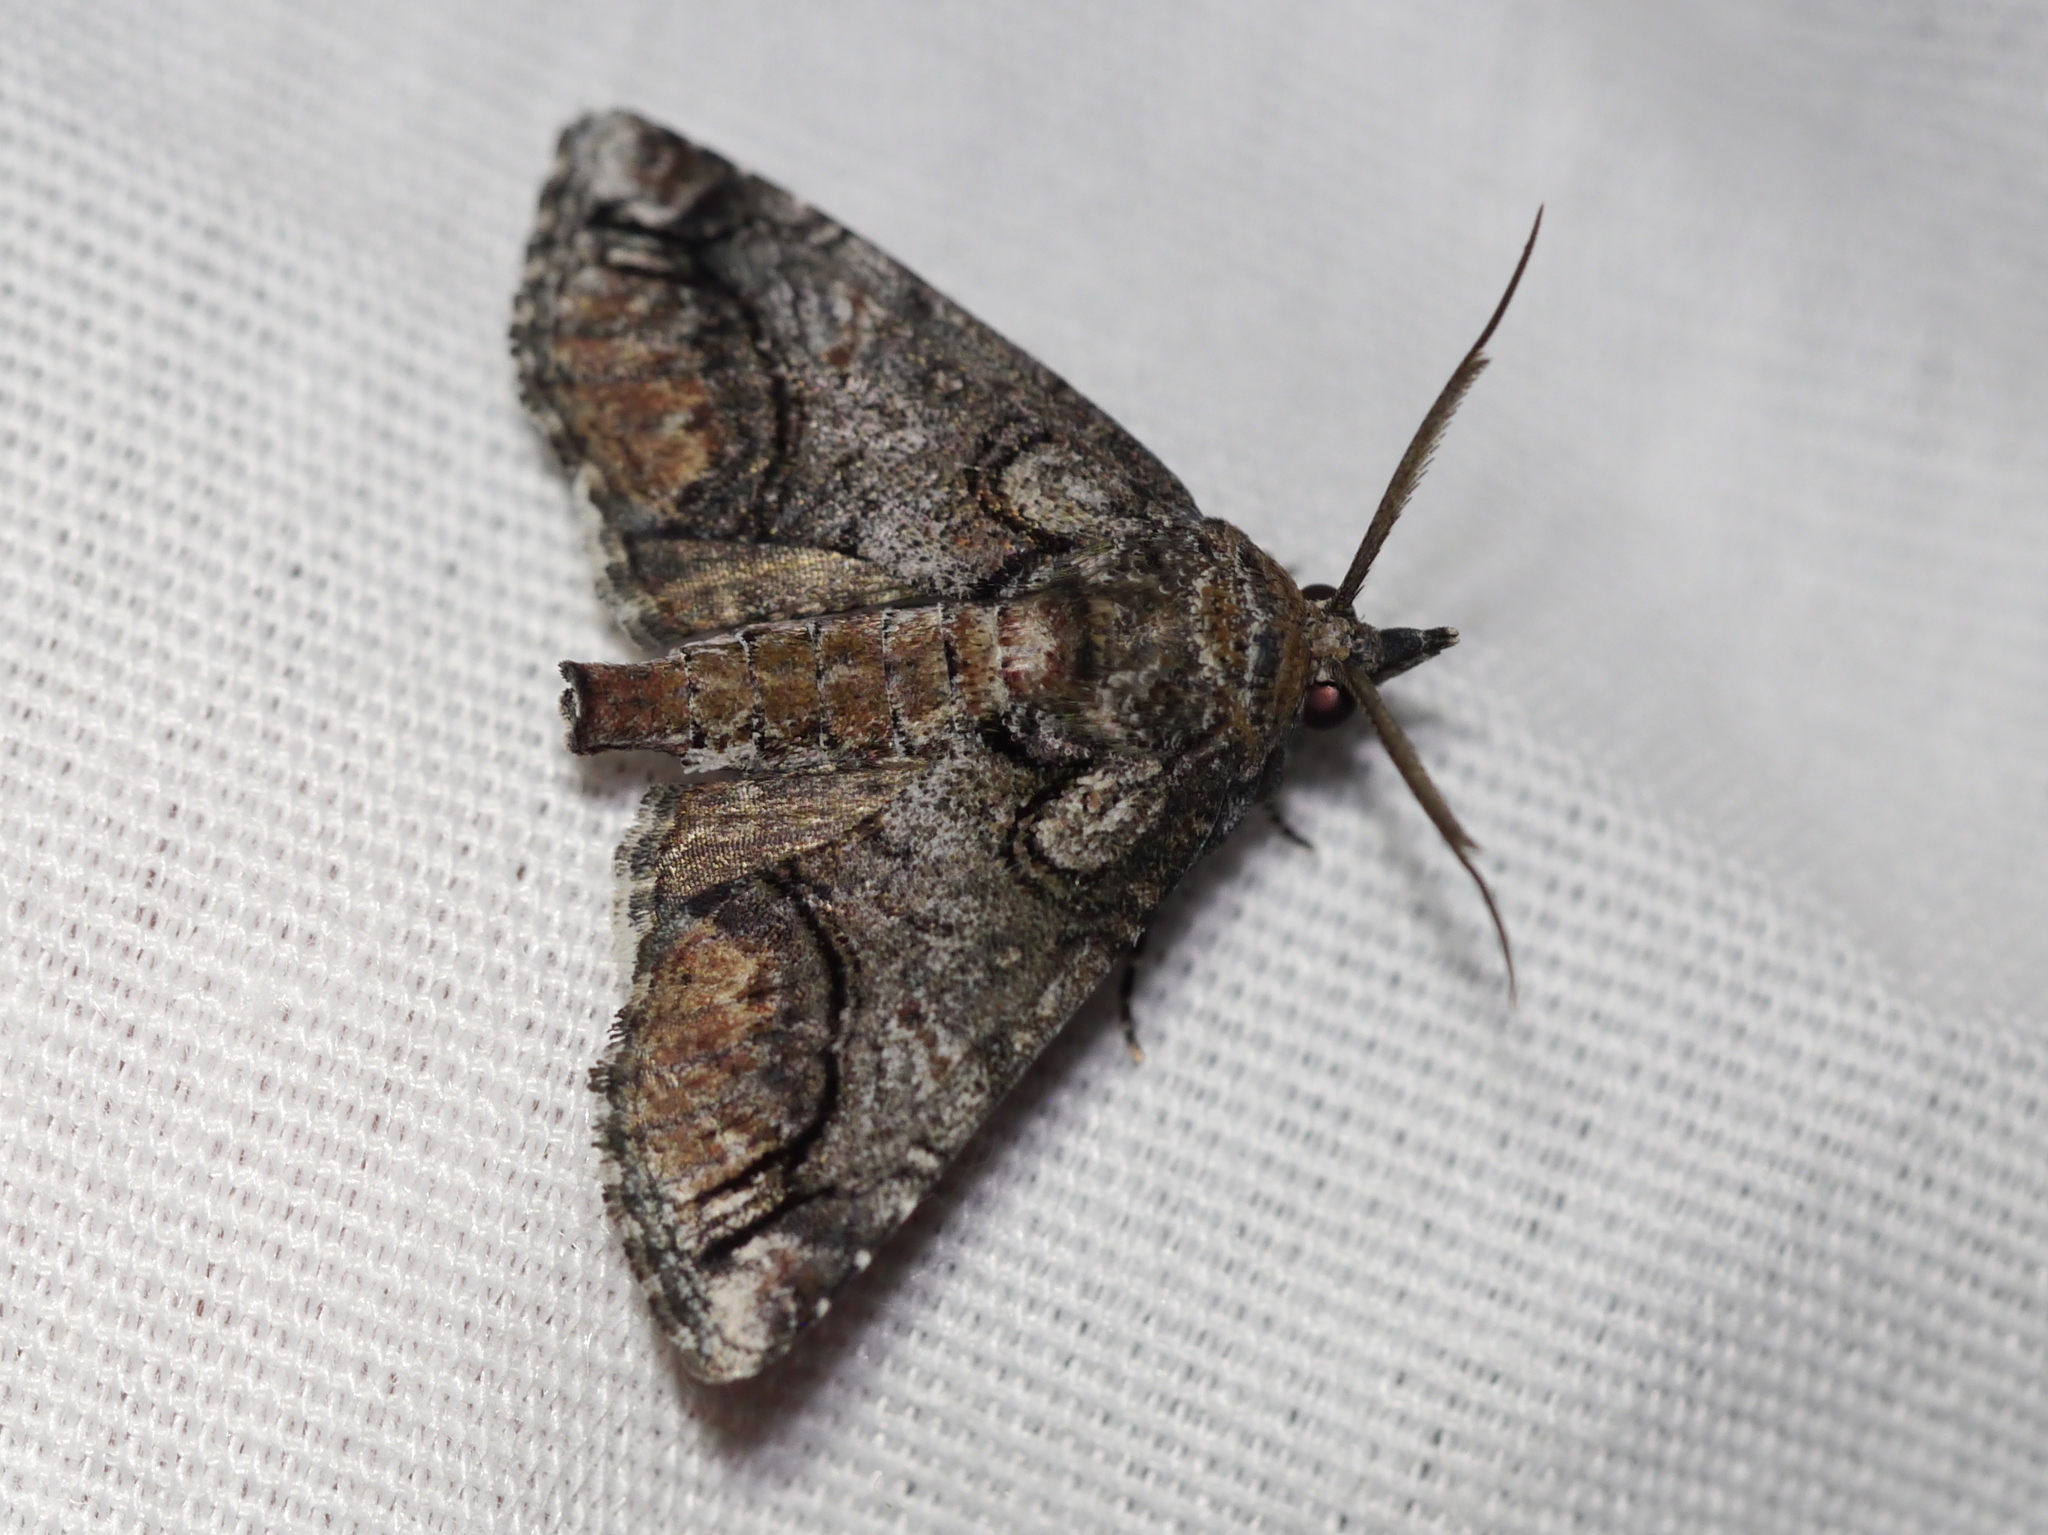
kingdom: Animalia
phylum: Arthropoda
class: Insecta
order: Lepidoptera
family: Euteliidae
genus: Paectes
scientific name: Paectes abrostolella
